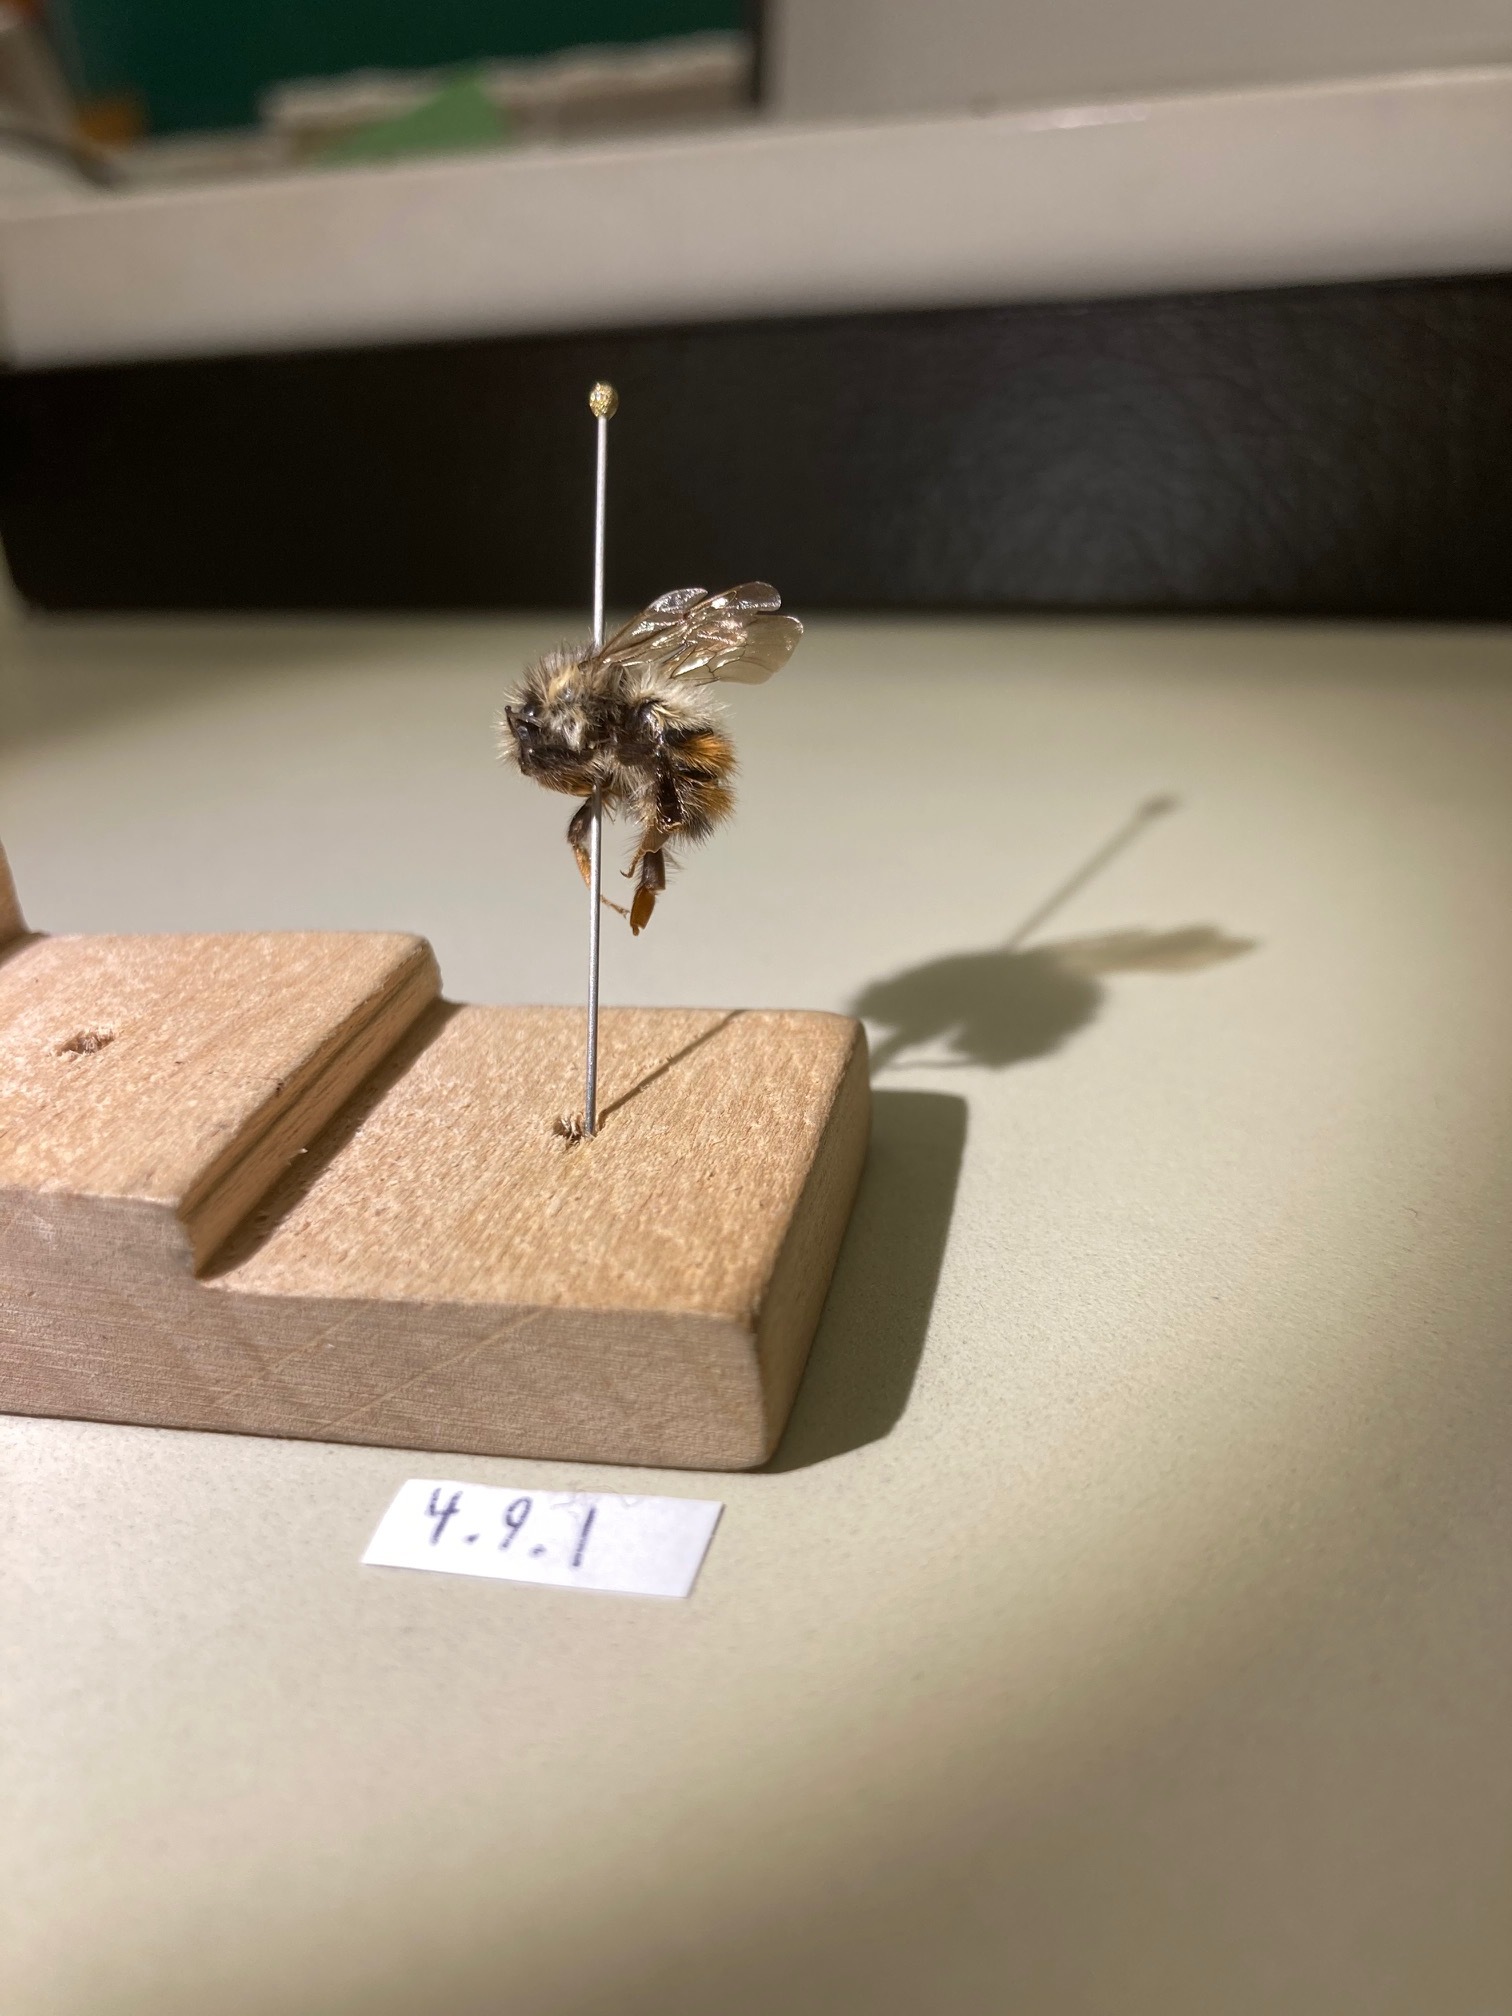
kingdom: Animalia
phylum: Arthropoda
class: Insecta
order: Hymenoptera
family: Apidae
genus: Bombus
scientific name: Bombus flavifrons
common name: Yellow head bumble bee
